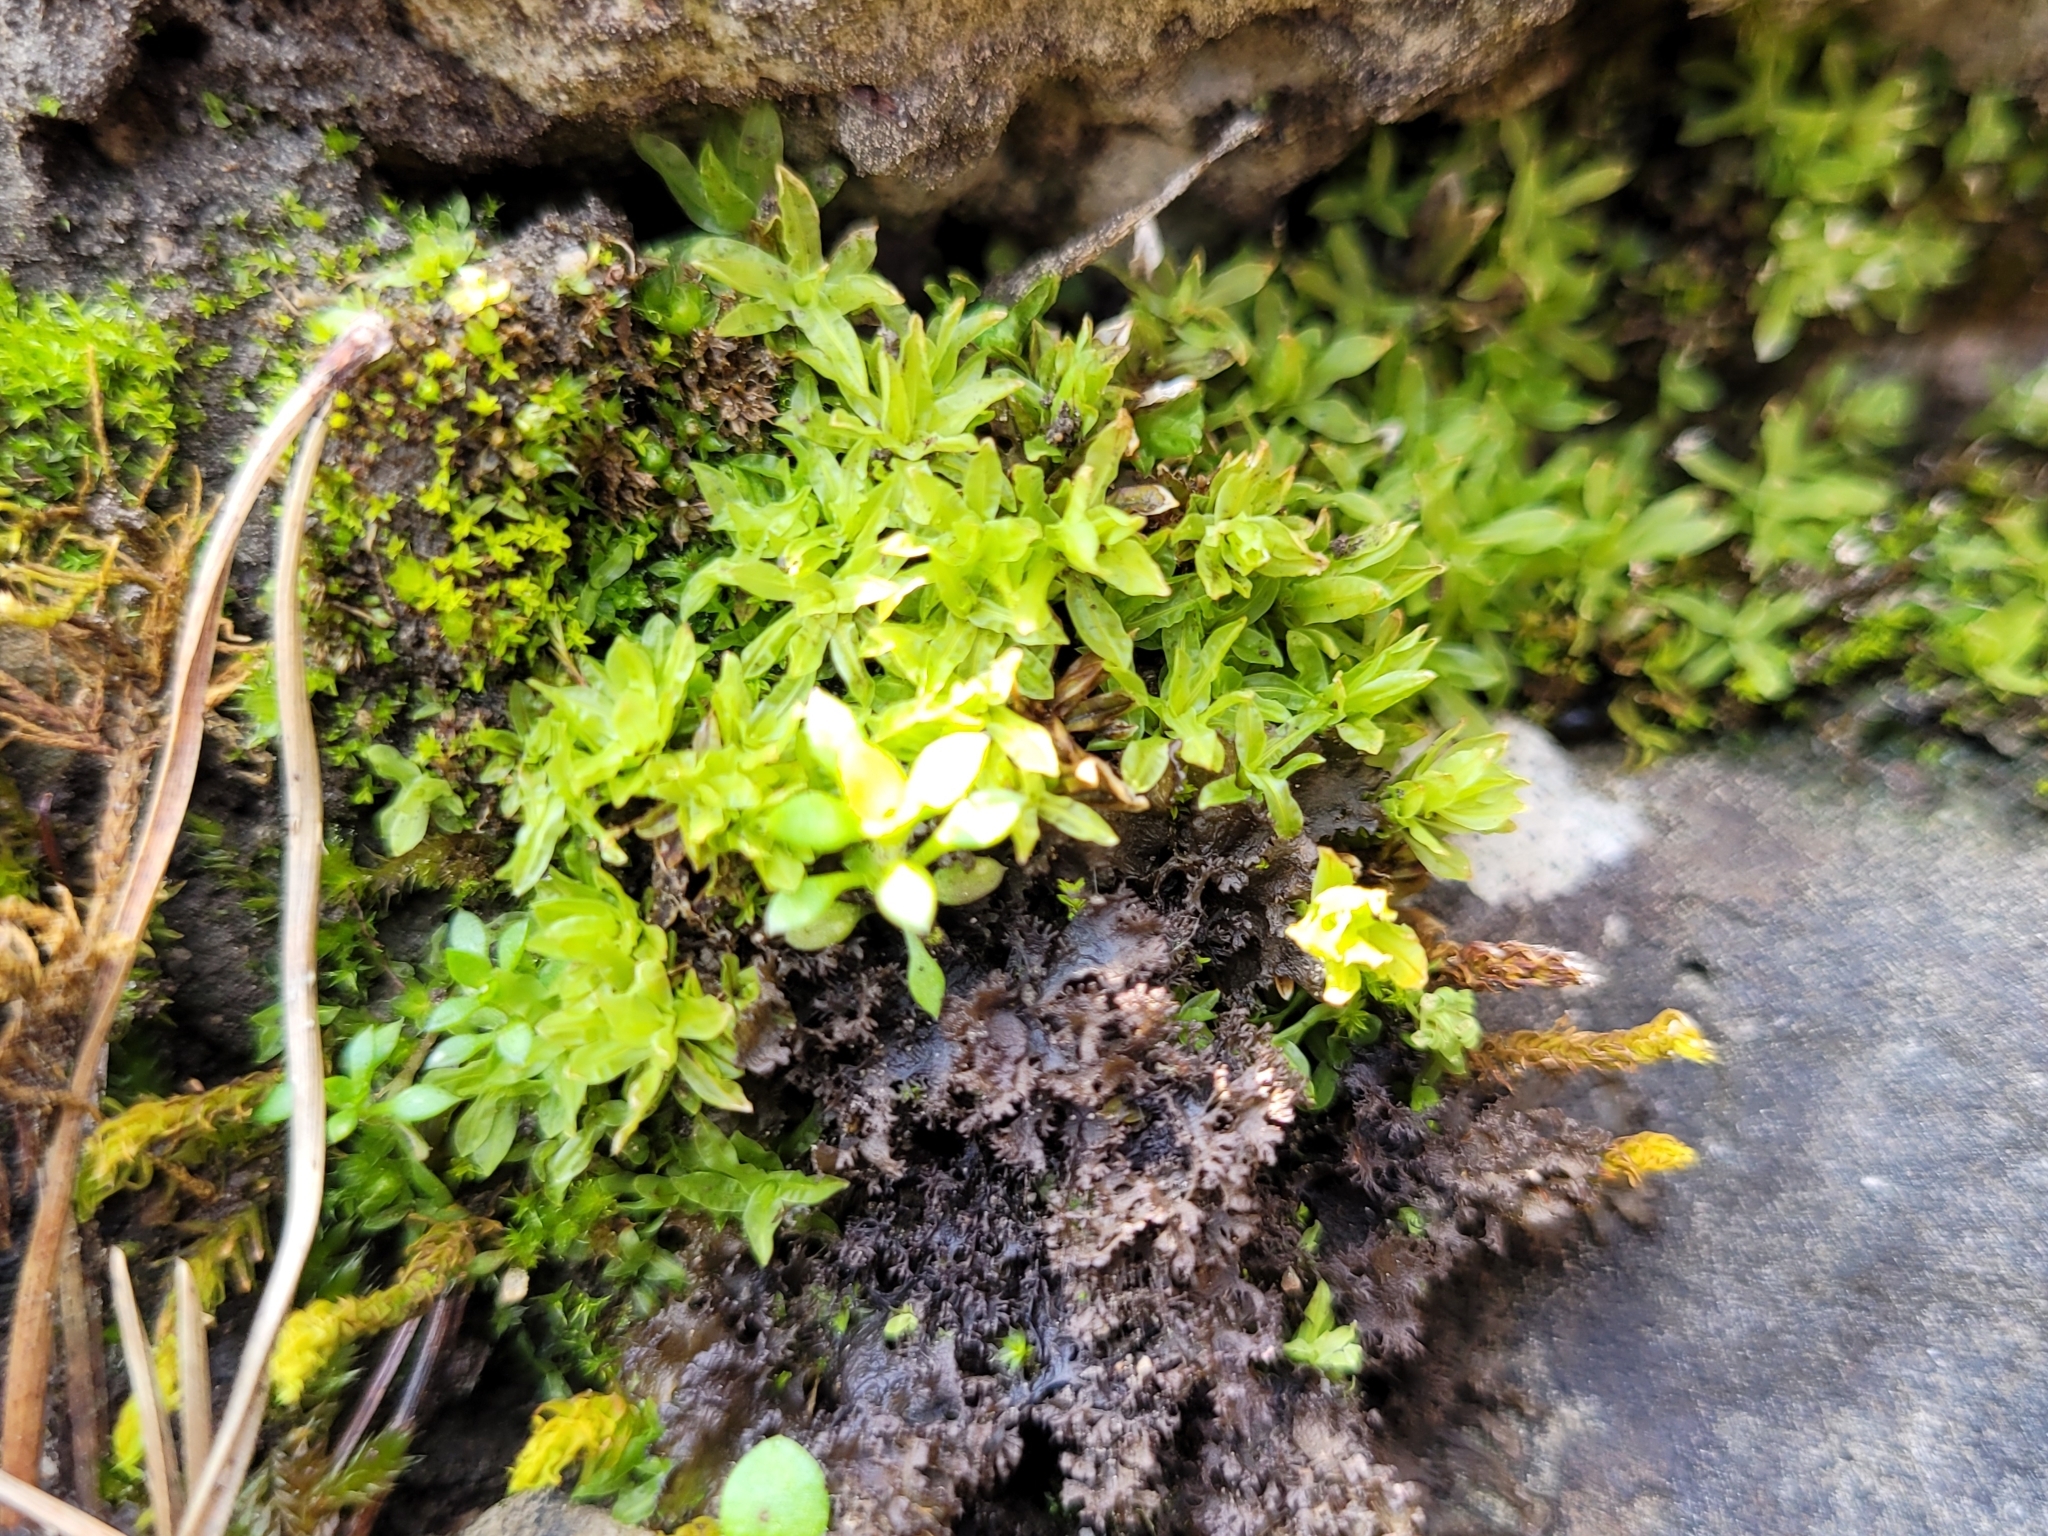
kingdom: Plantae
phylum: Bryophyta
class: Bryopsida
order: Encalyptales
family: Encalyptaceae
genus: Encalypta
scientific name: Encalypta streptocarpa
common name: Spiral extinguisher-moss
